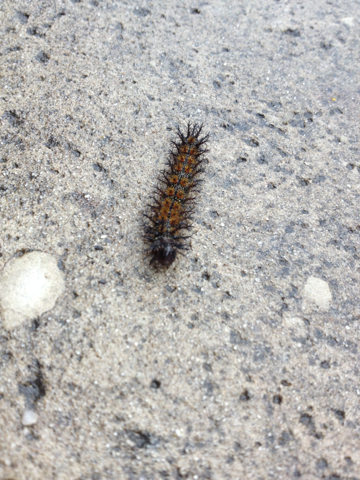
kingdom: Animalia
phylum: Arthropoda
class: Insecta
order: Lepidoptera
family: Saturniidae
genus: Hemileuca
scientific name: Hemileuca maia
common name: Eastern buckmoth
